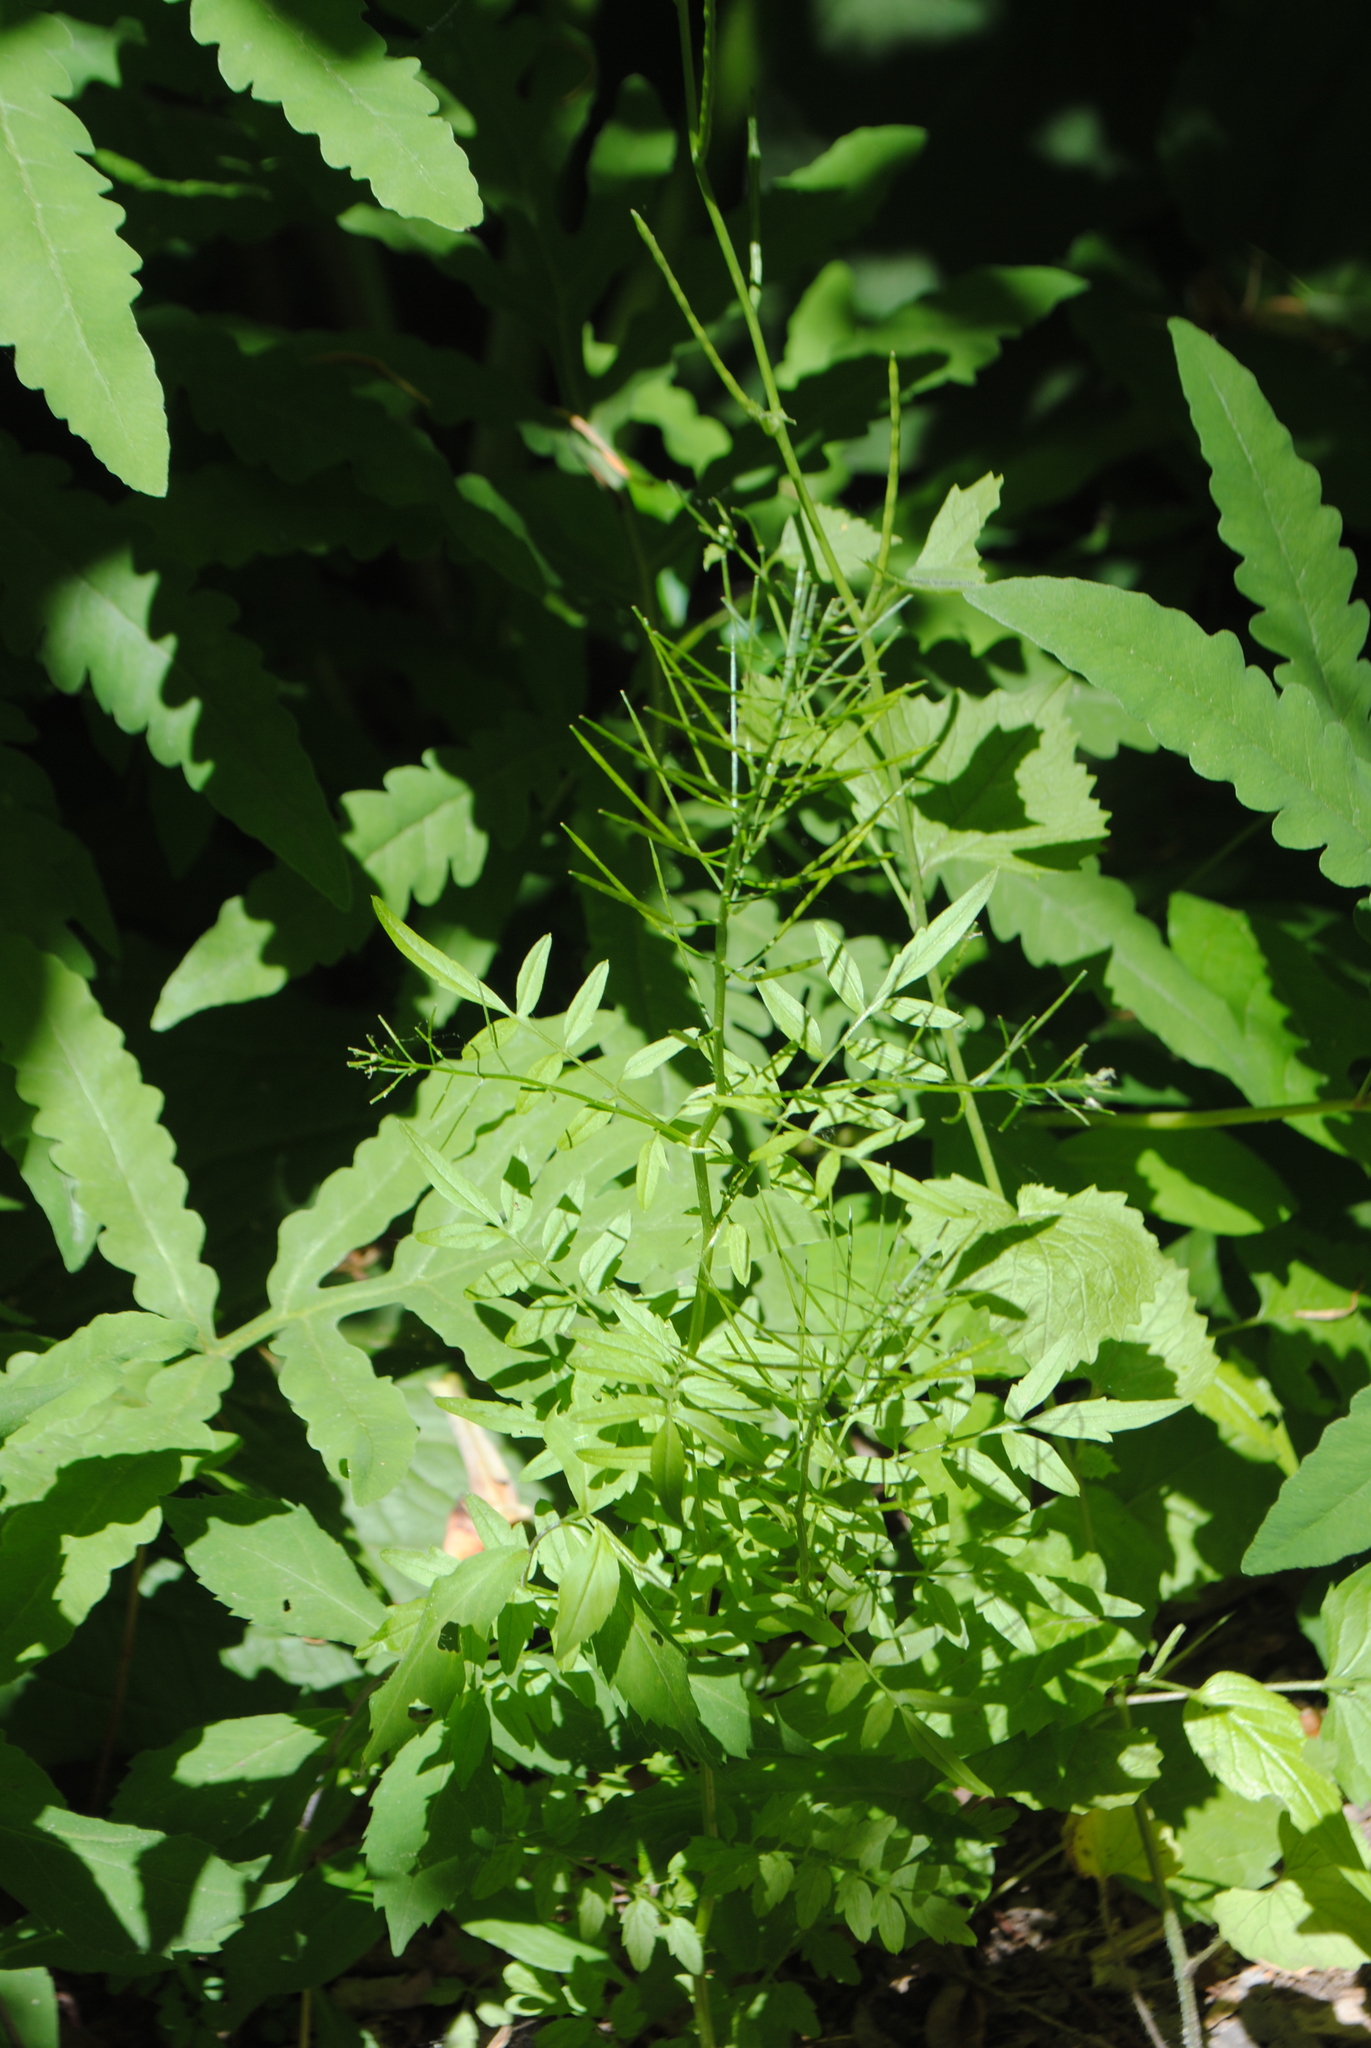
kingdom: Plantae
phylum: Tracheophyta
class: Magnoliopsida
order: Brassicales
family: Brassicaceae
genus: Cardamine
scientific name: Cardamine impatiens
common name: Narrow-leaved bitter-cress
